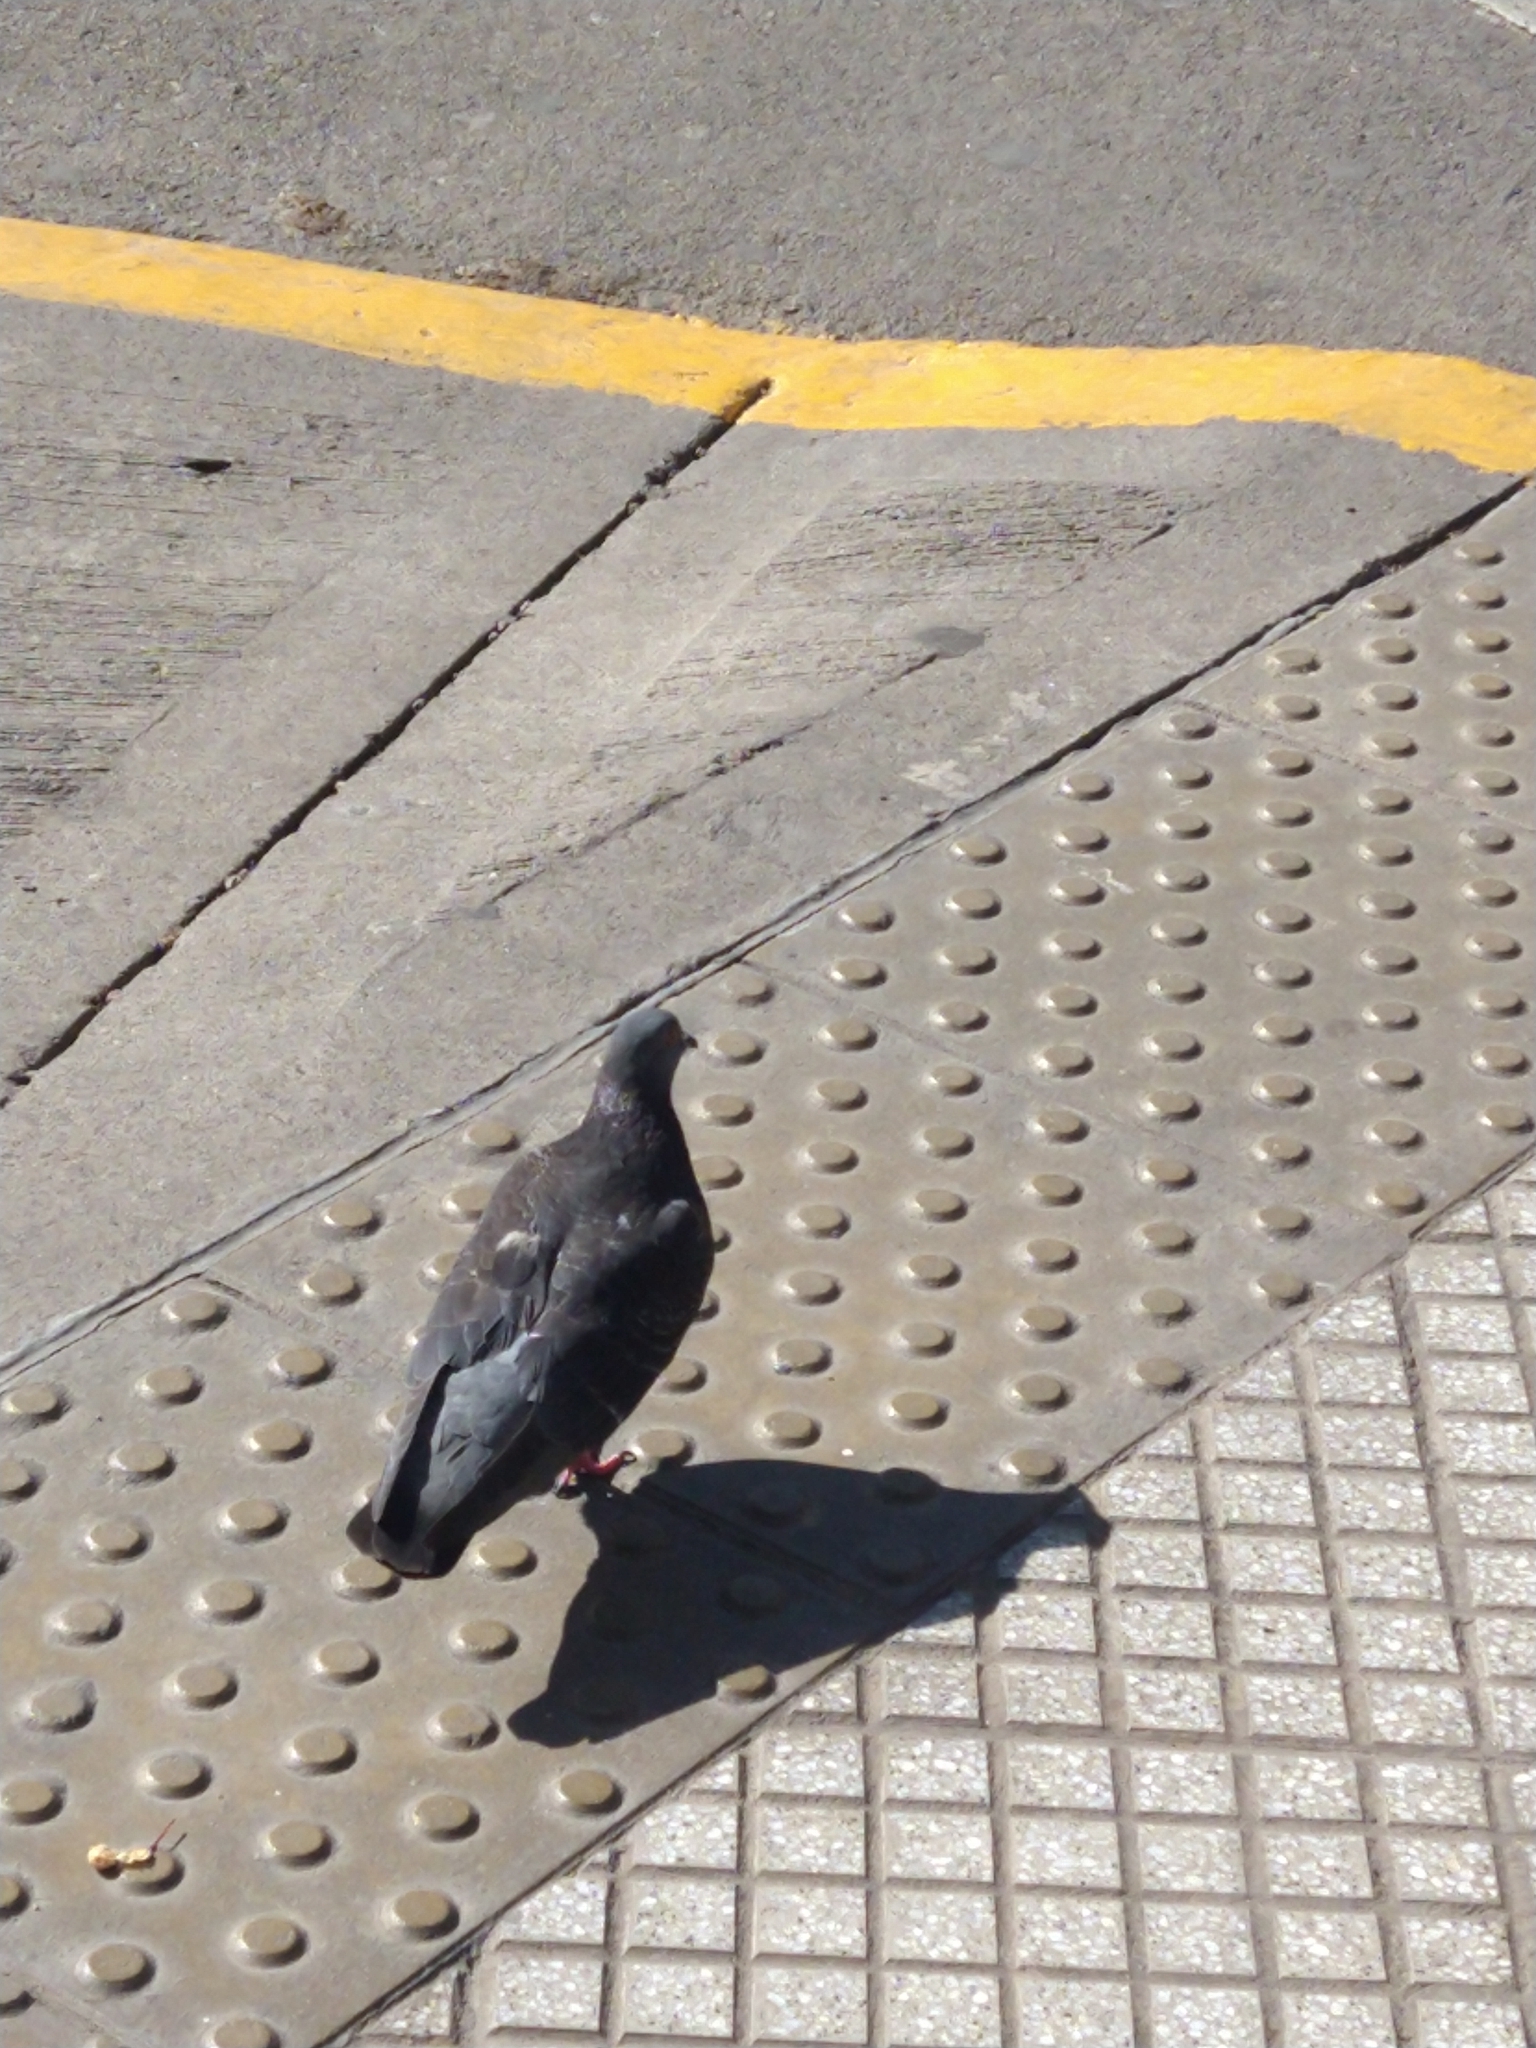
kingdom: Animalia
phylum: Chordata
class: Aves
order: Columbiformes
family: Columbidae
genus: Columba
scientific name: Columba livia
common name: Rock pigeon
